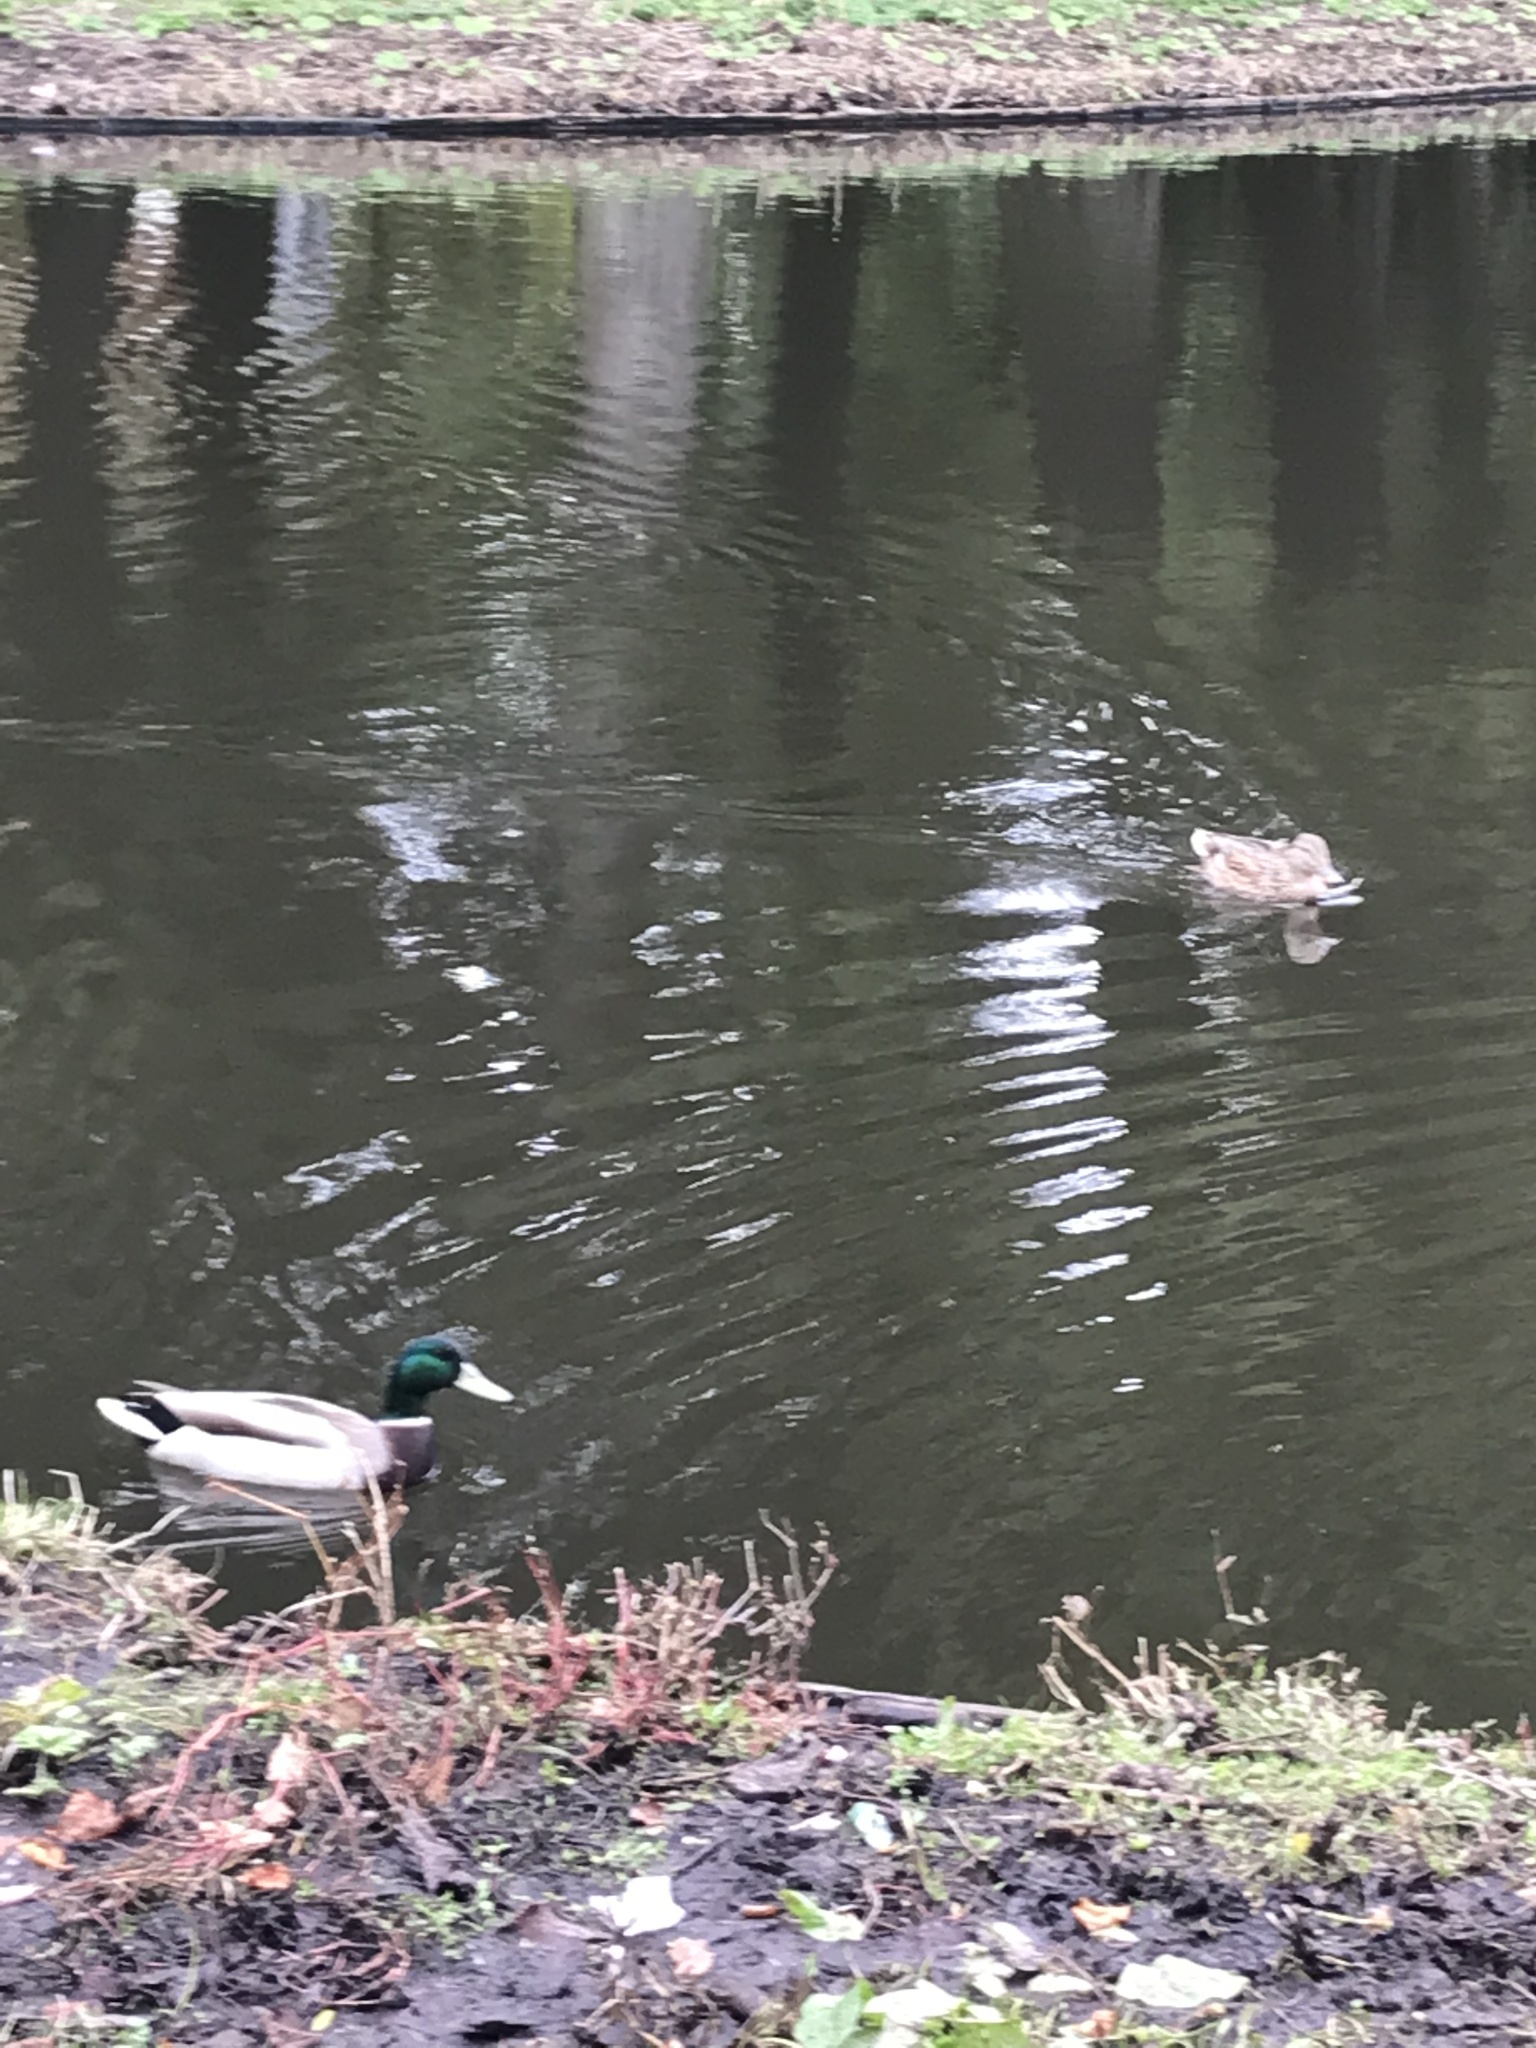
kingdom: Animalia
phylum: Chordata
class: Aves
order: Anseriformes
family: Anatidae
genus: Anas
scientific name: Anas platyrhynchos
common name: Mallard
